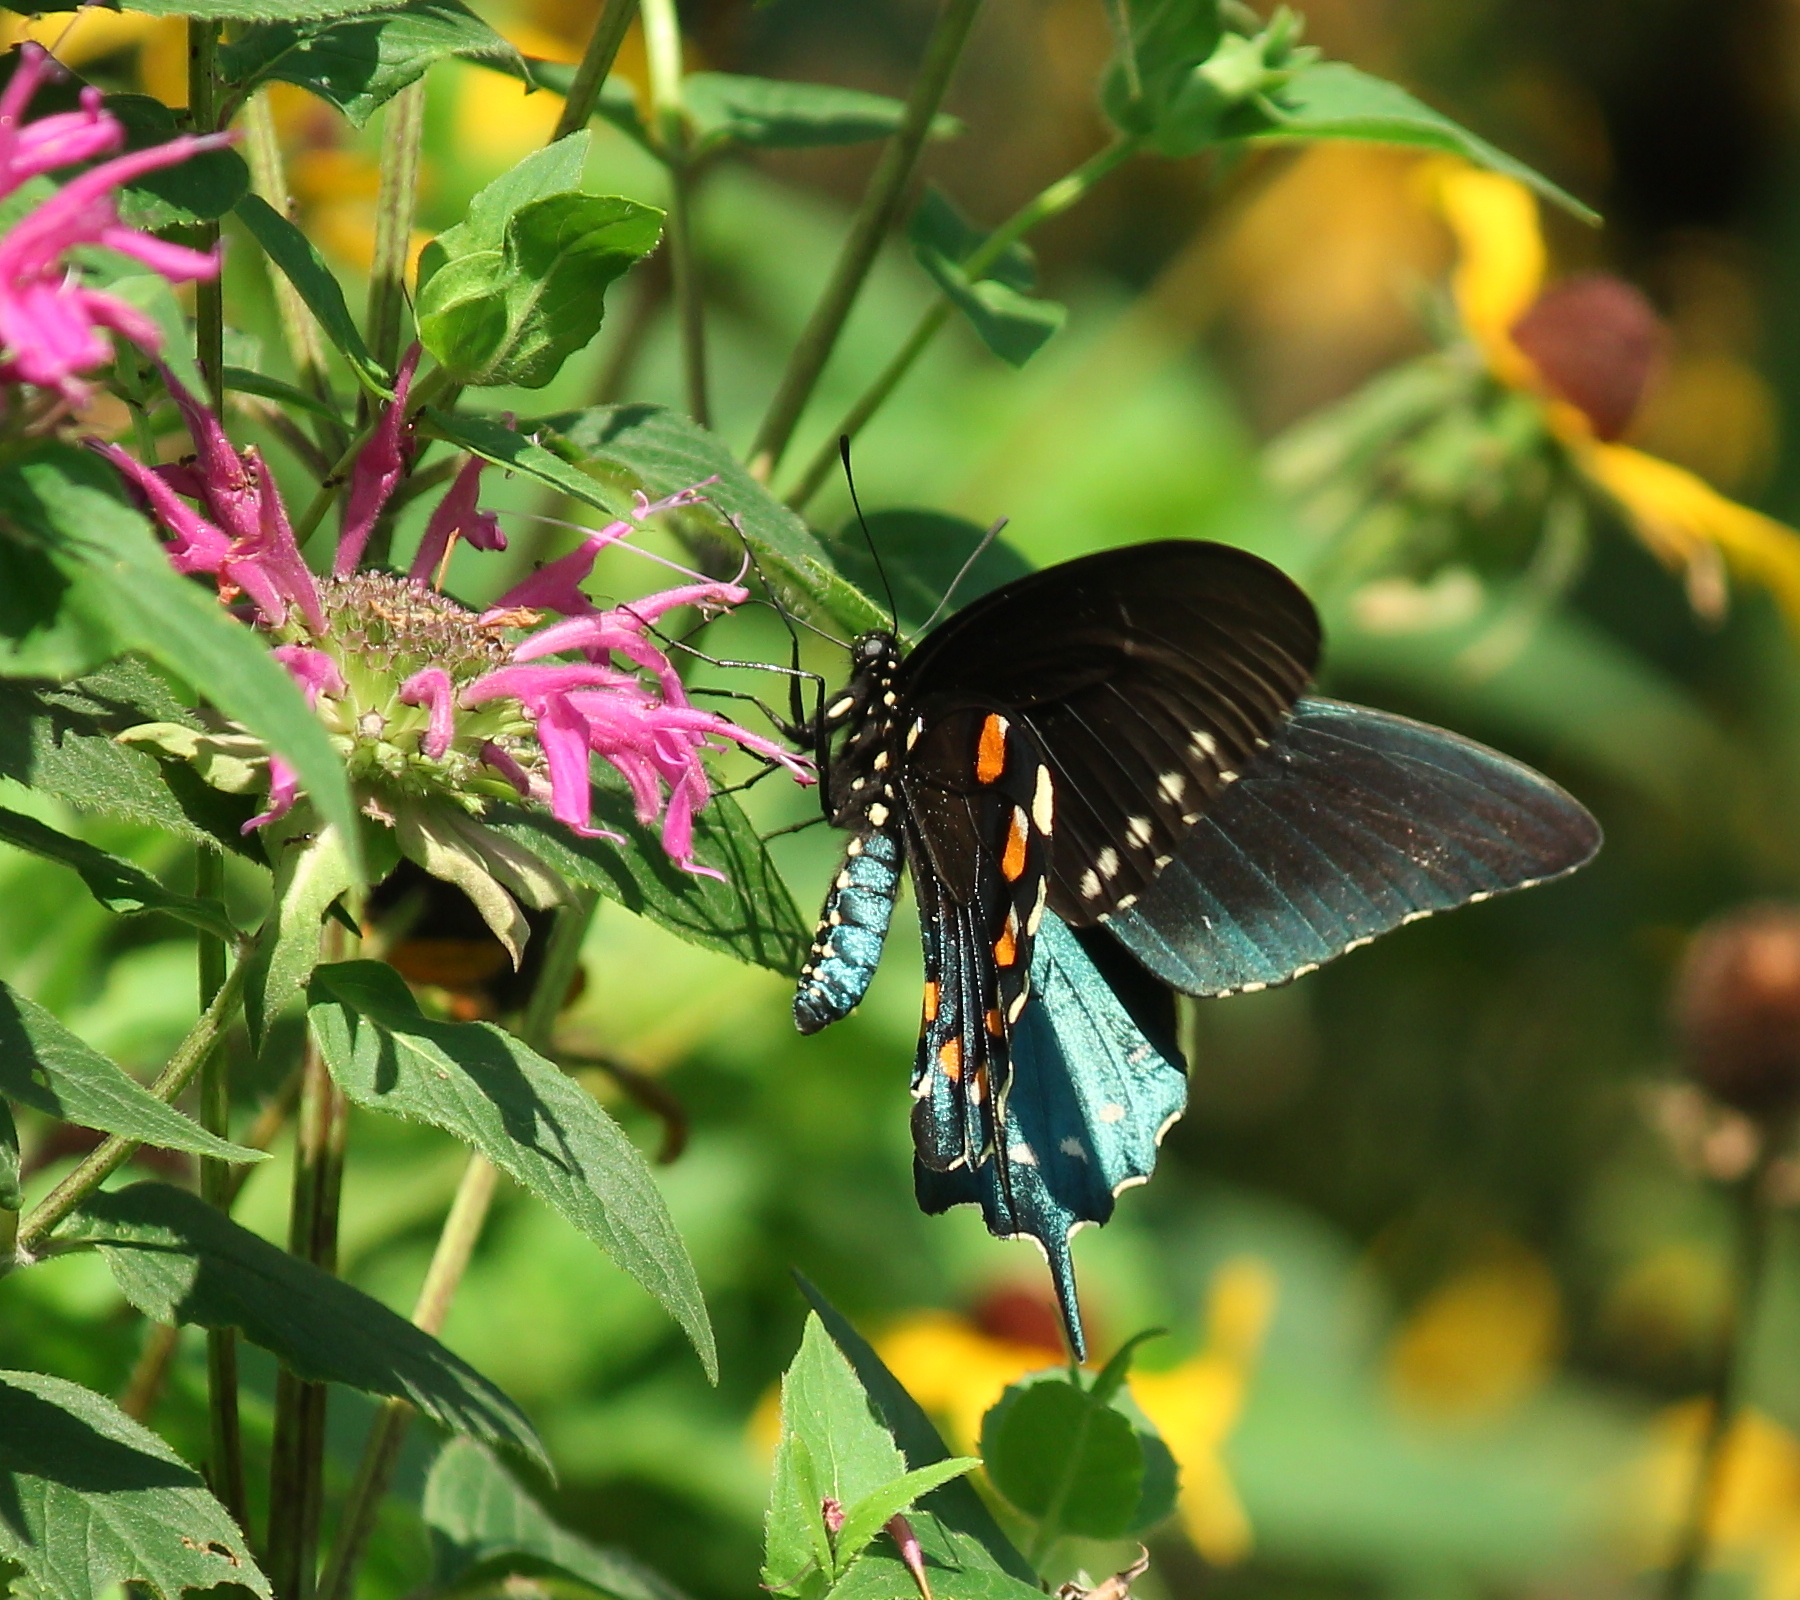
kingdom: Animalia
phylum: Arthropoda
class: Insecta
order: Lepidoptera
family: Papilionidae
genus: Battus
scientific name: Battus philenor
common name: Pipevine swallowtail
